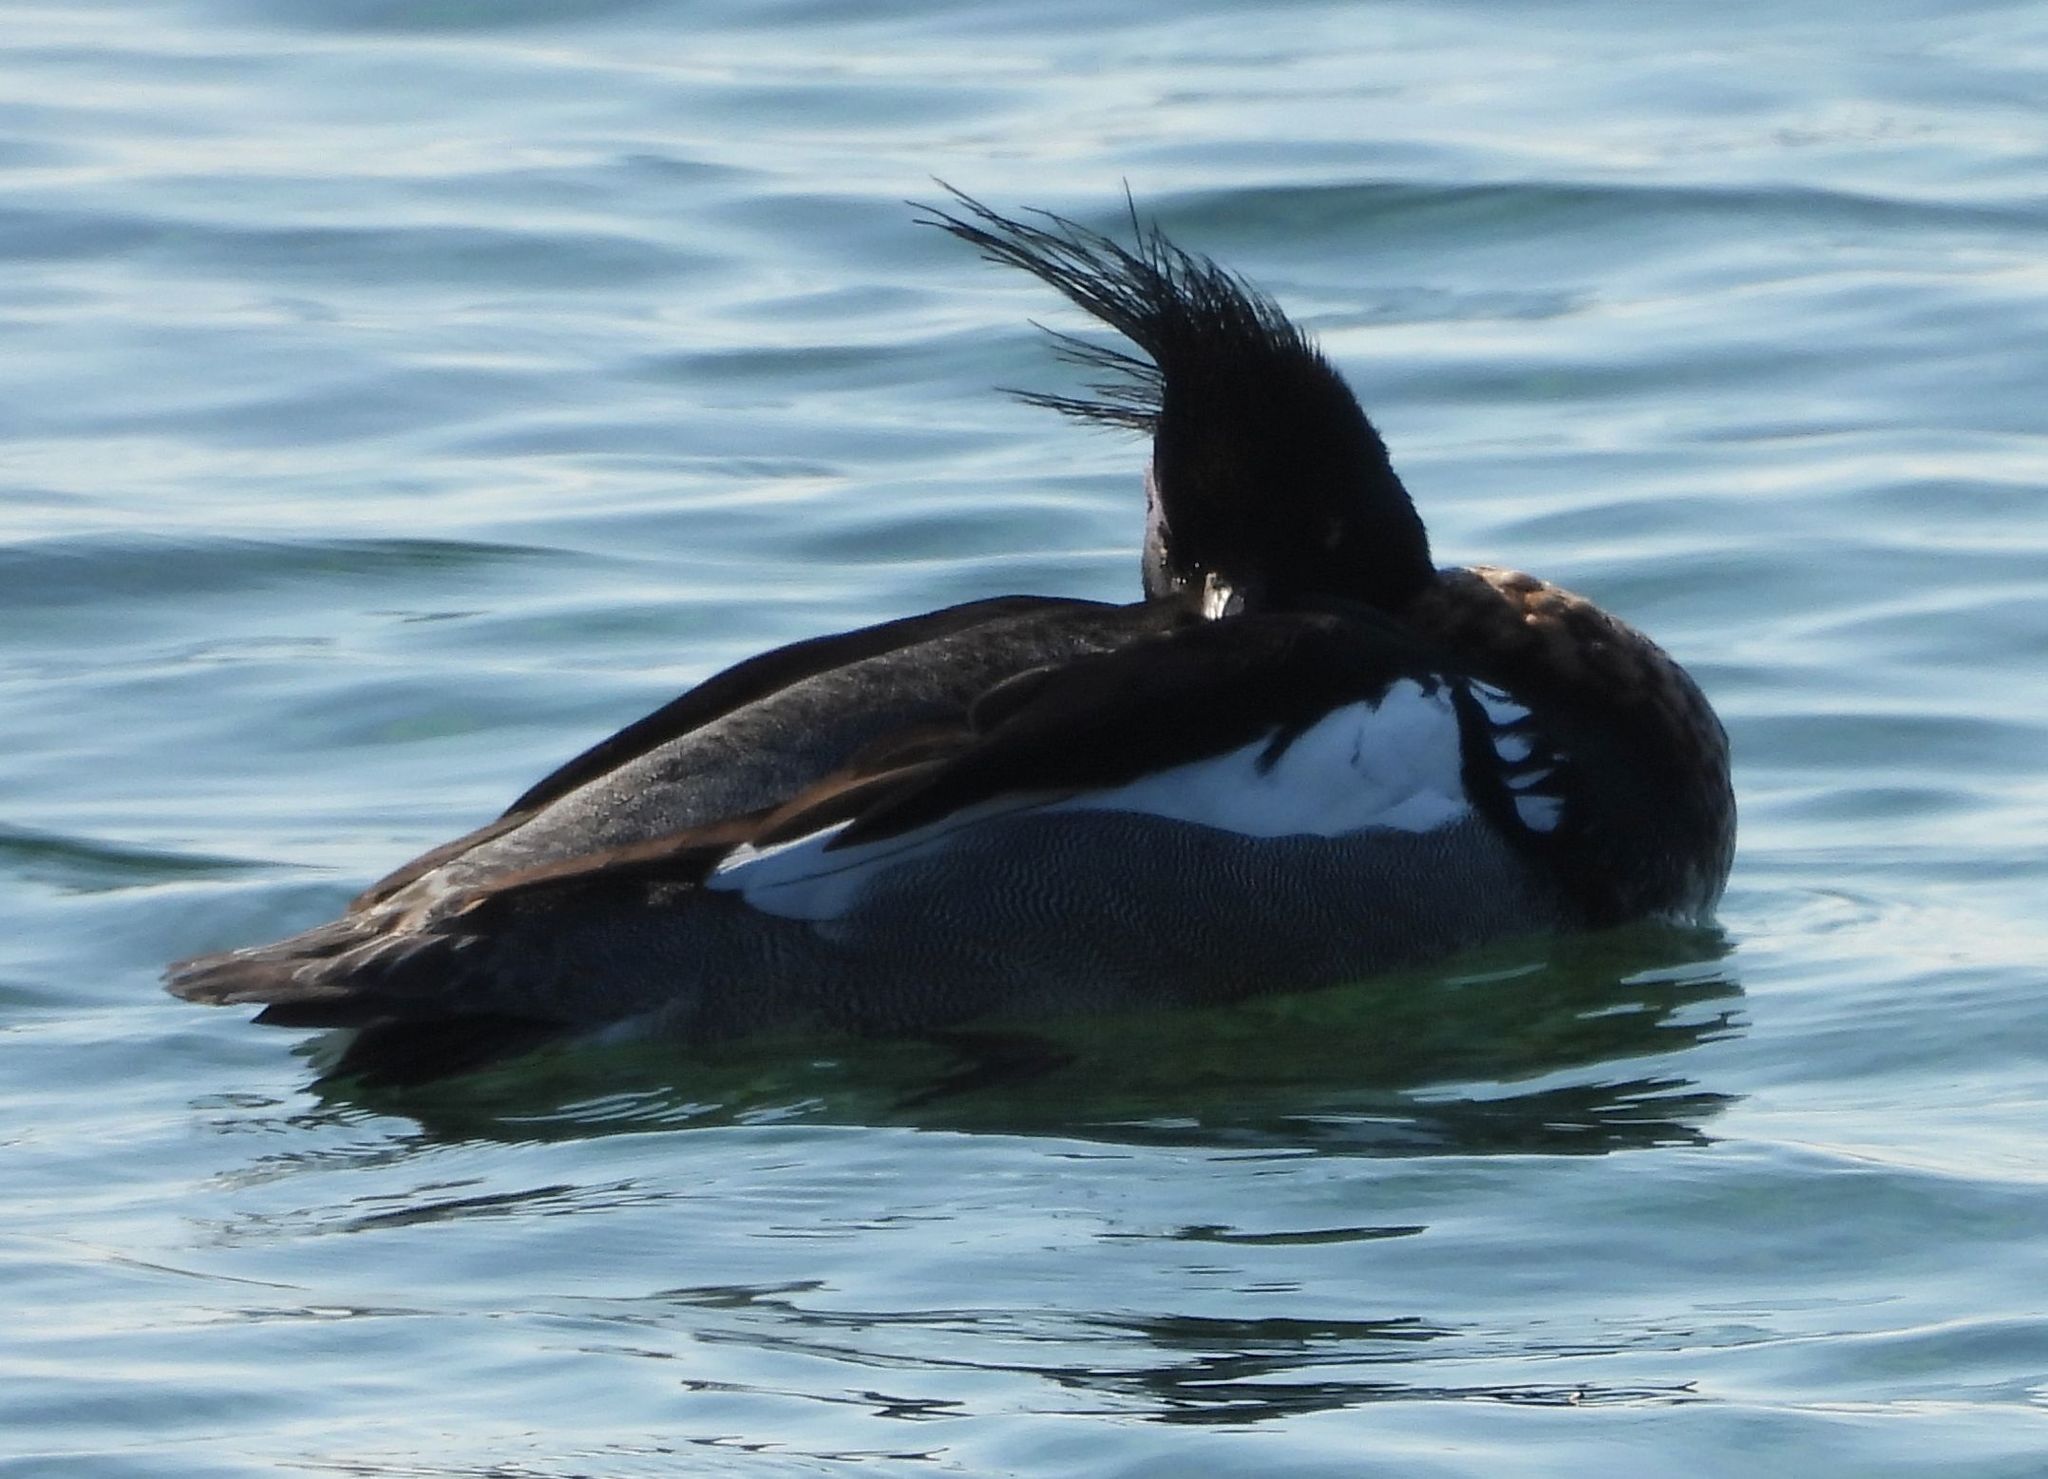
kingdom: Animalia
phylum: Chordata
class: Aves
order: Anseriformes
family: Anatidae
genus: Mergus
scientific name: Mergus serrator
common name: Red-breasted merganser
